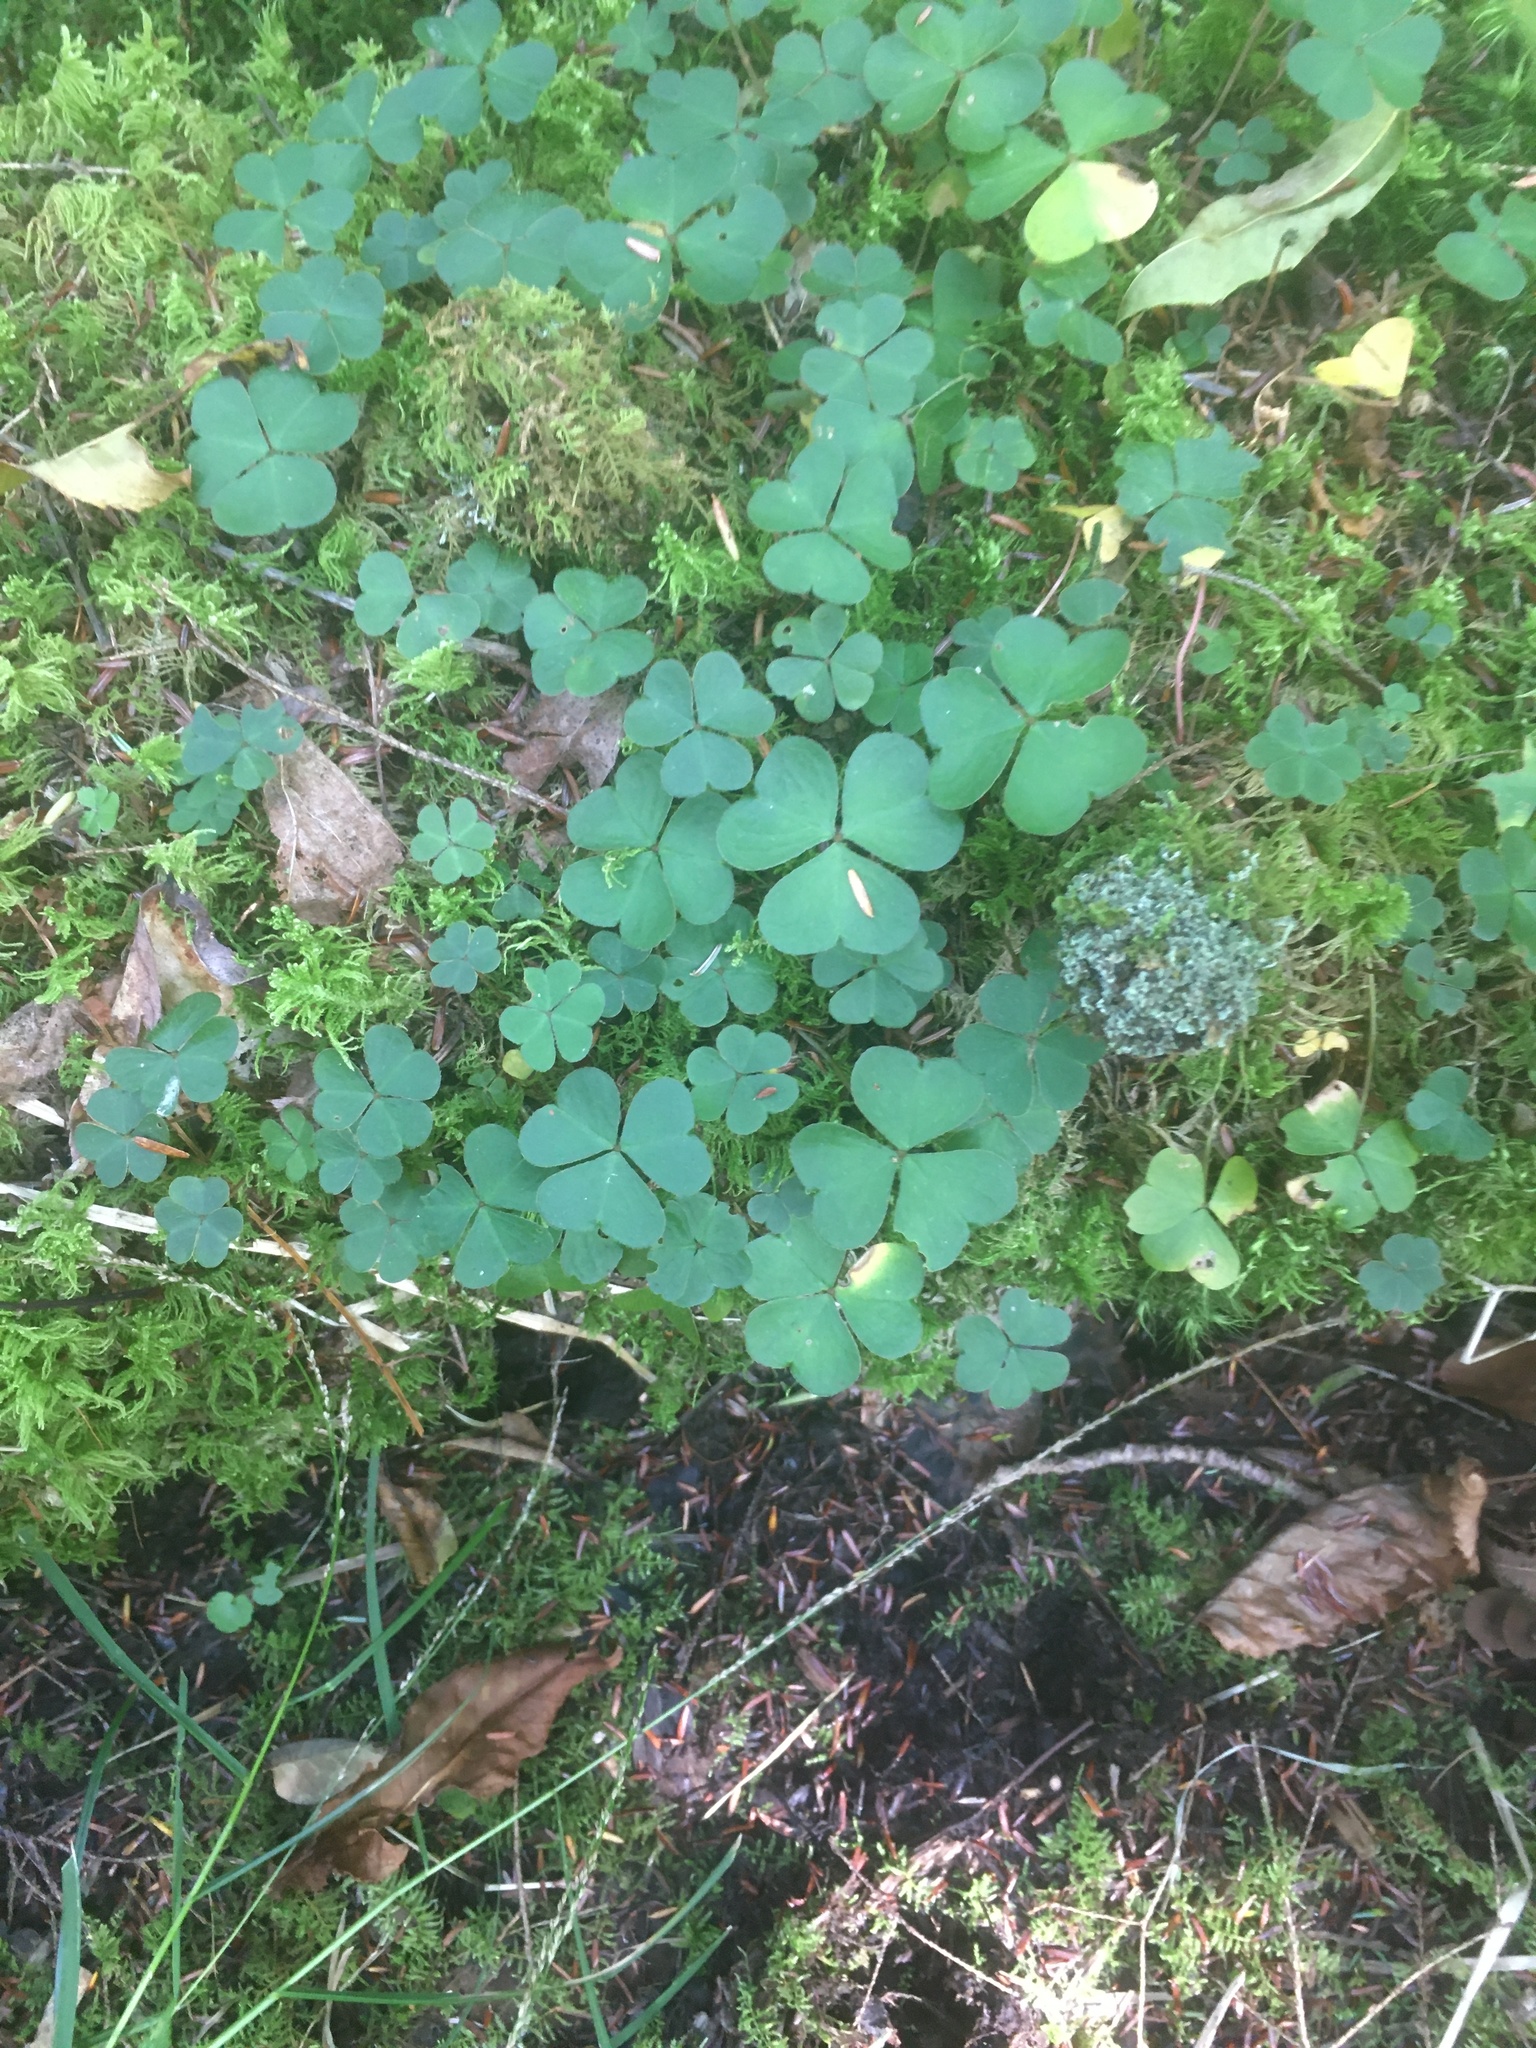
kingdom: Plantae
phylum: Tracheophyta
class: Magnoliopsida
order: Oxalidales
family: Oxalidaceae
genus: Oxalis
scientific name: Oxalis montana
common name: American wood-sorrel
